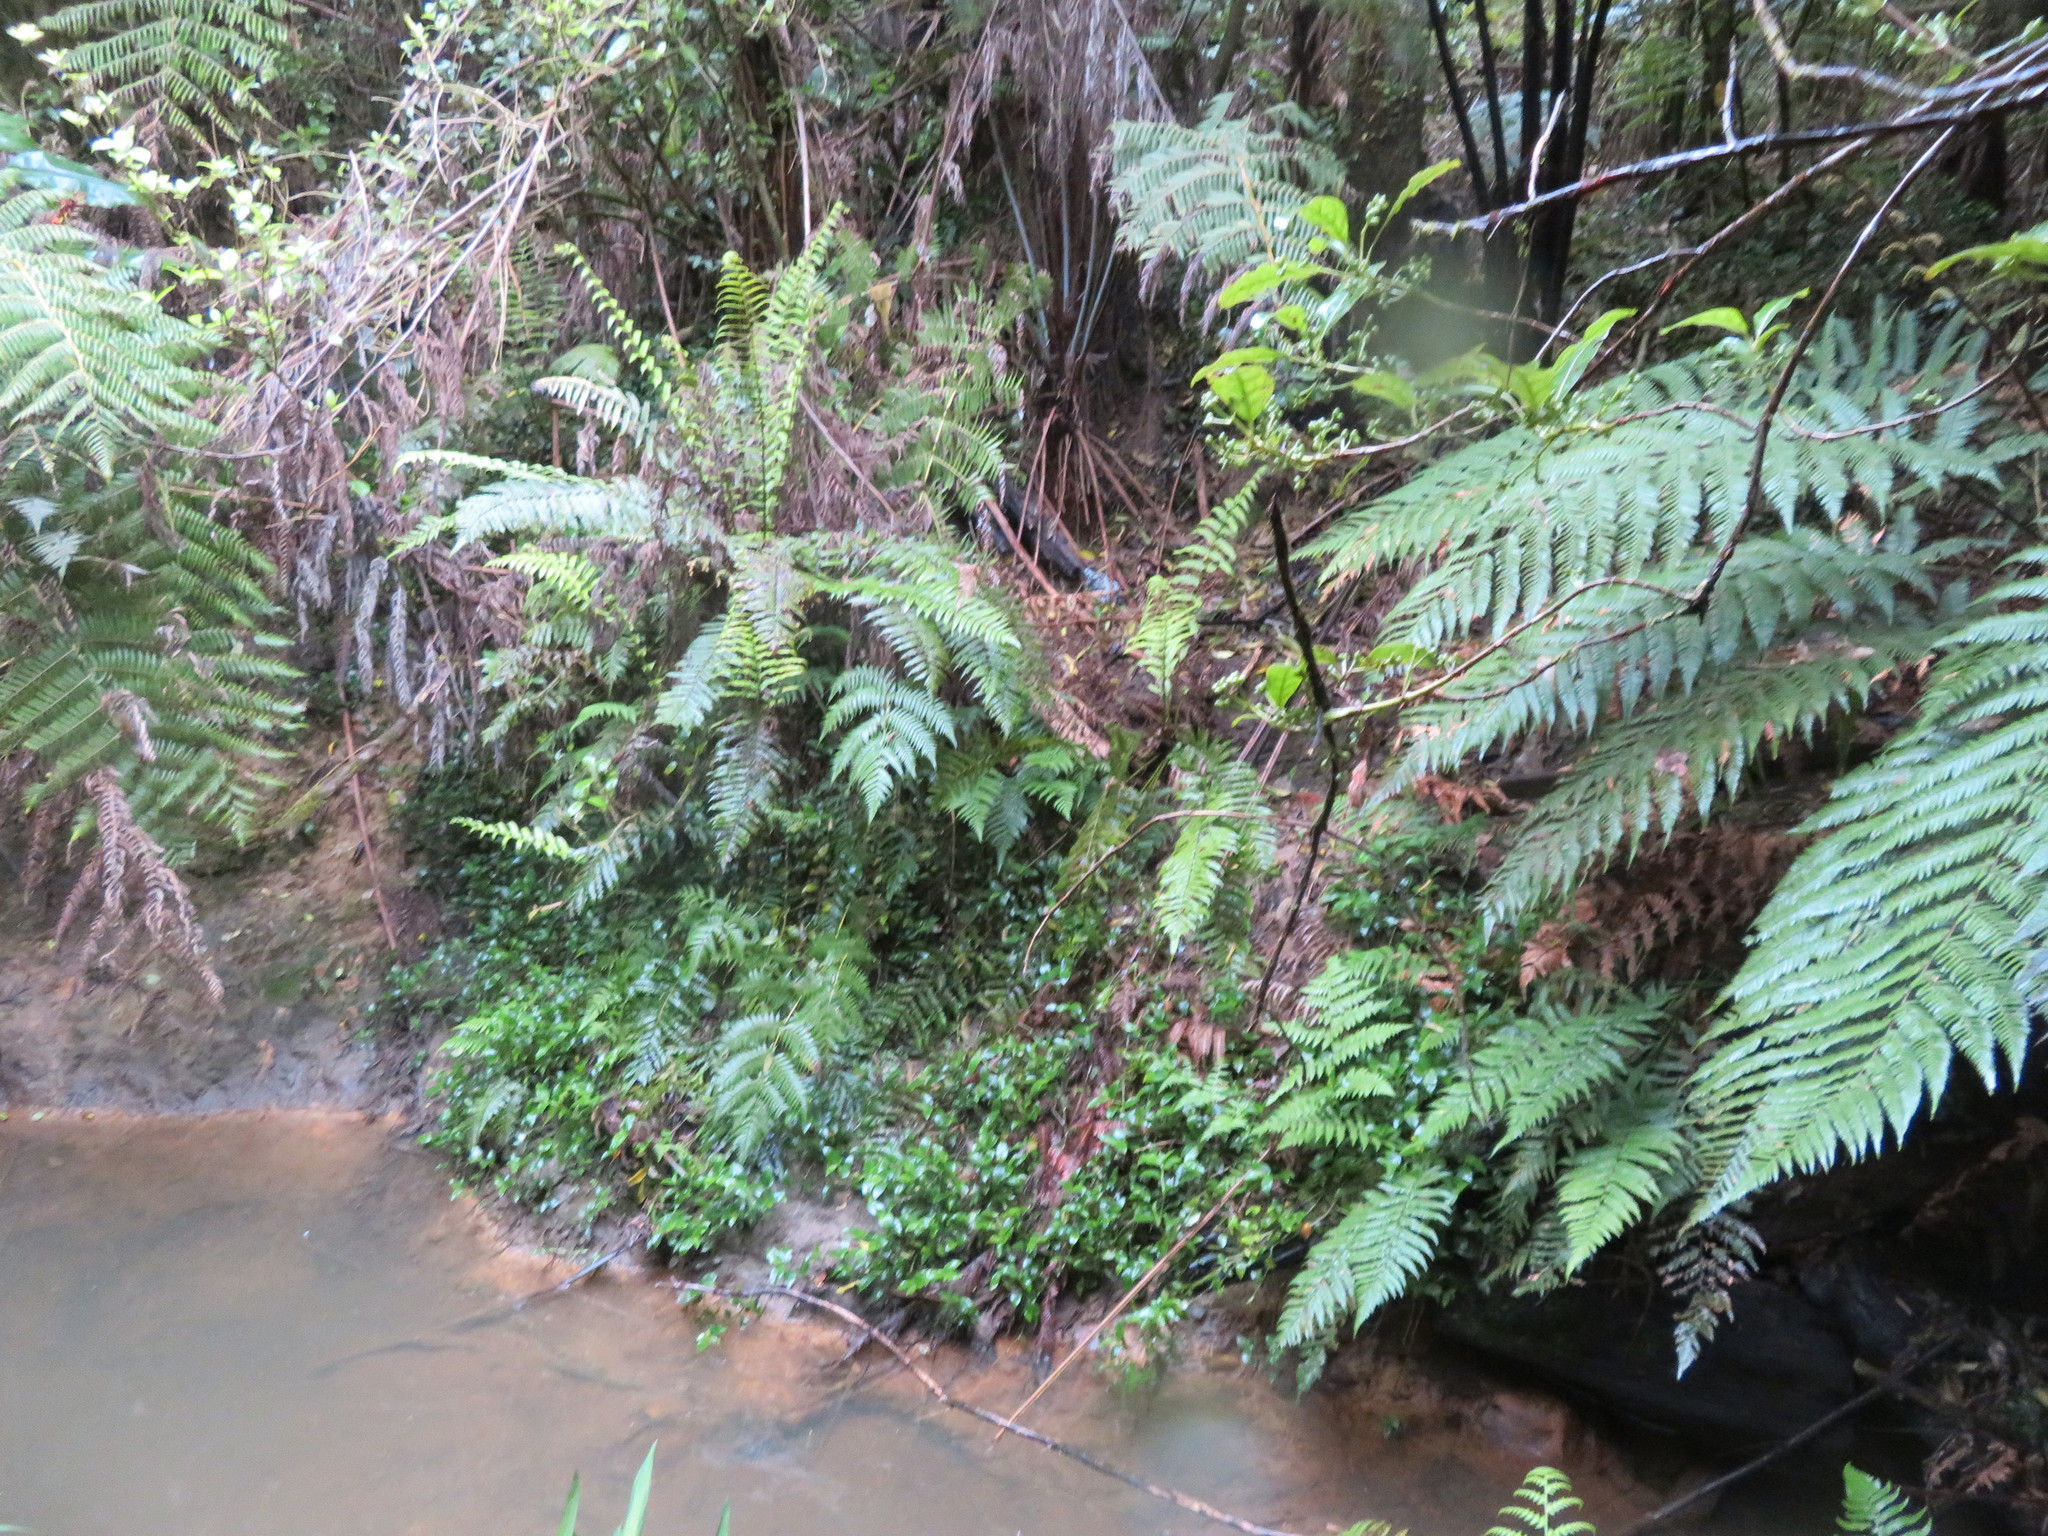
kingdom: Plantae
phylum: Tracheophyta
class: Liliopsida
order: Commelinales
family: Commelinaceae
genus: Tradescantia
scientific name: Tradescantia fluminensis
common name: Wandering-jew
